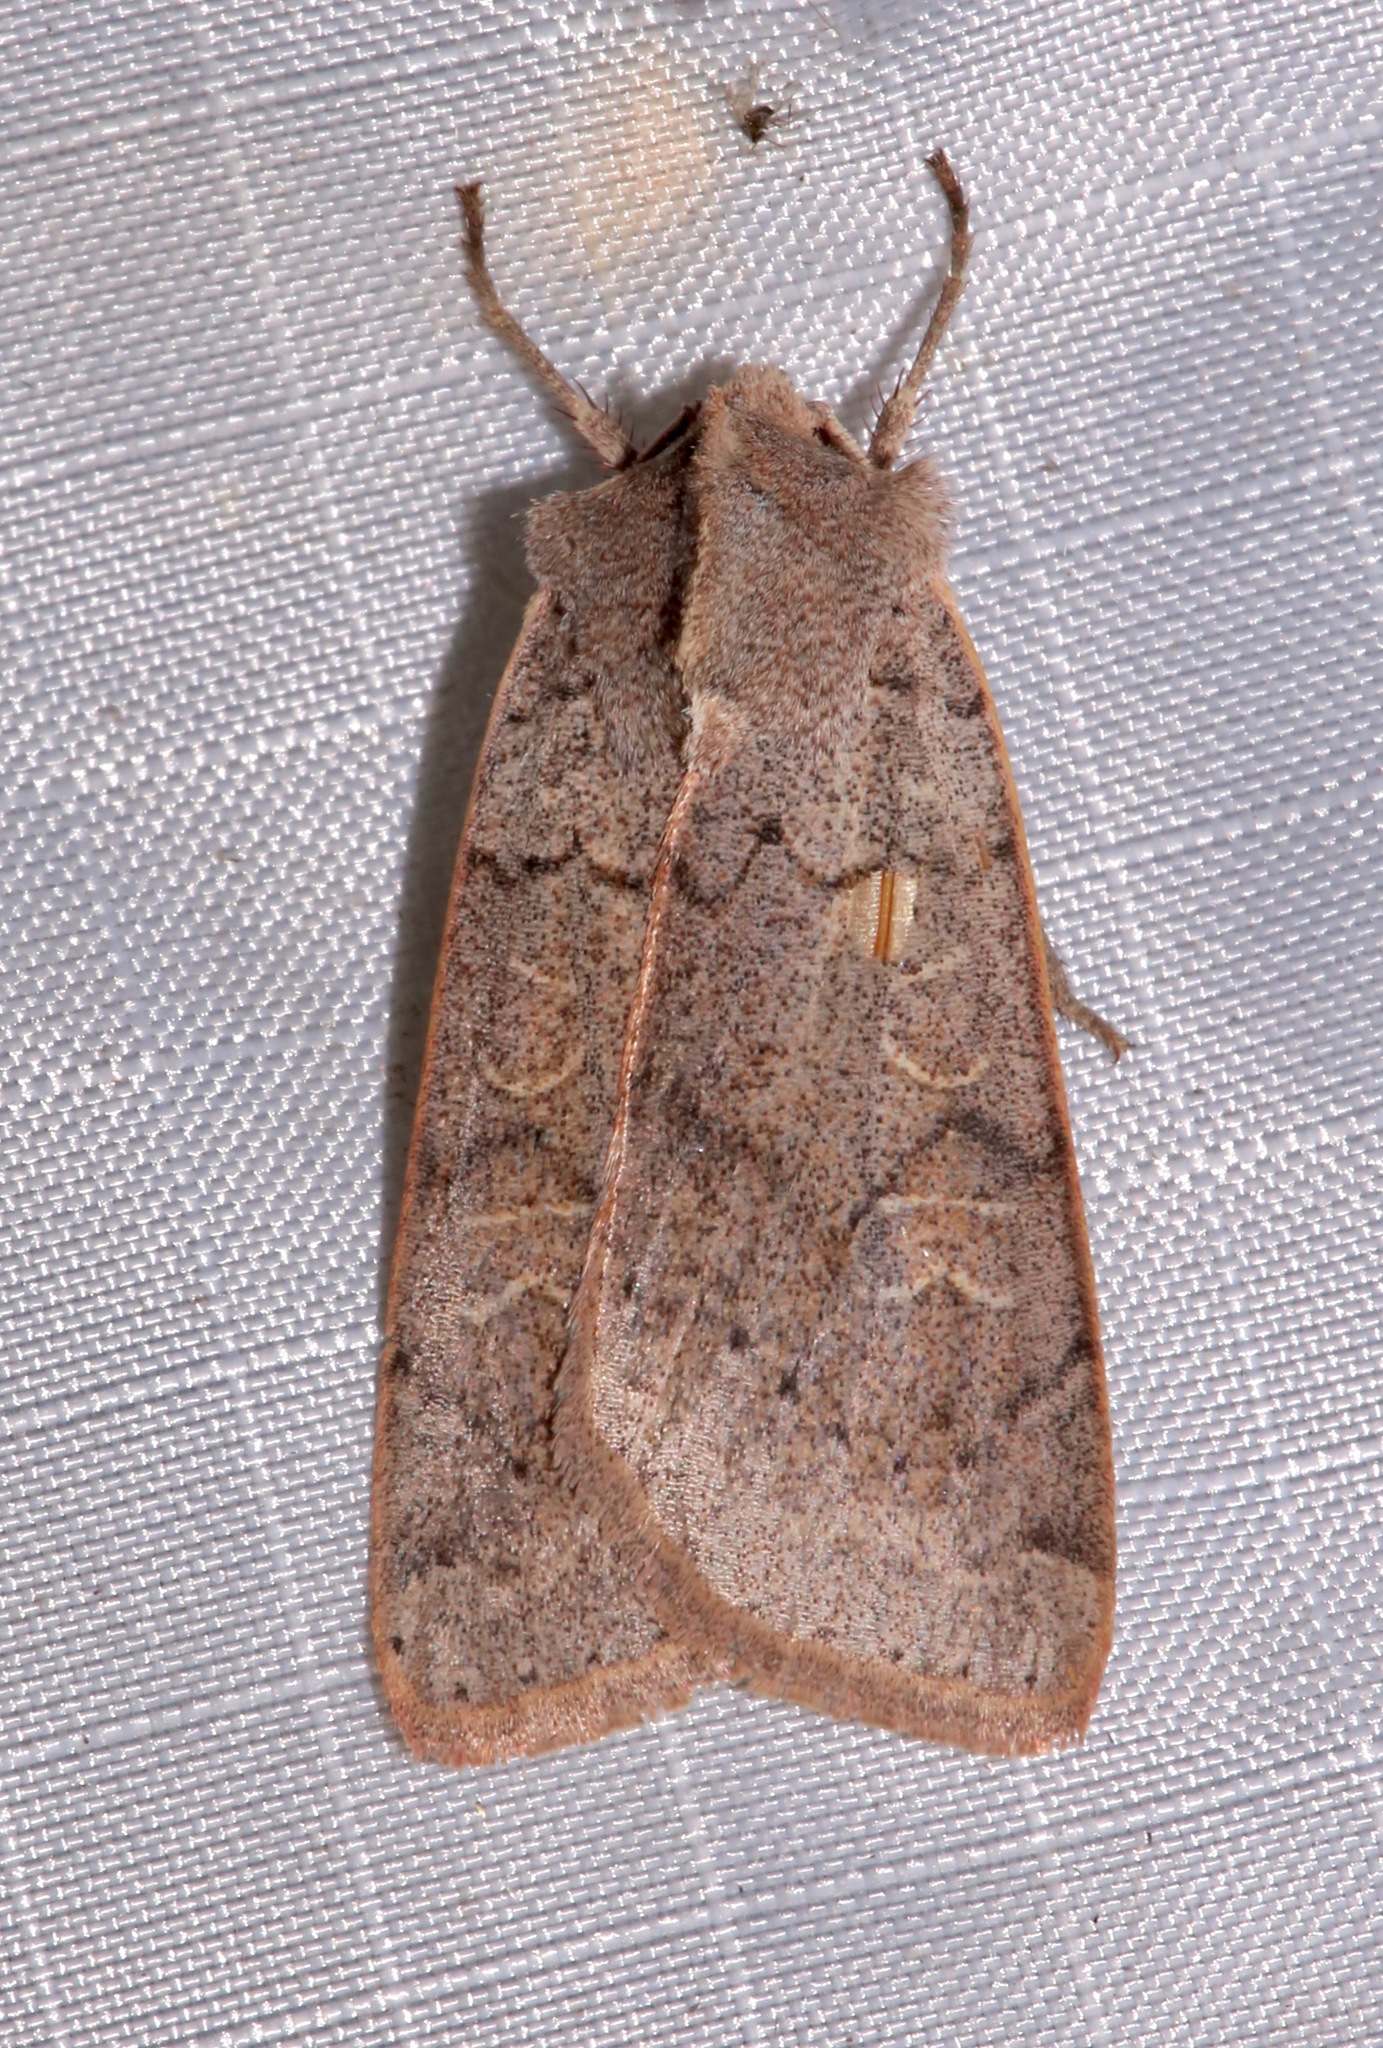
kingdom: Animalia
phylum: Arthropoda
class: Insecta
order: Lepidoptera
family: Noctuidae
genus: Richia
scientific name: Richia chortalis
